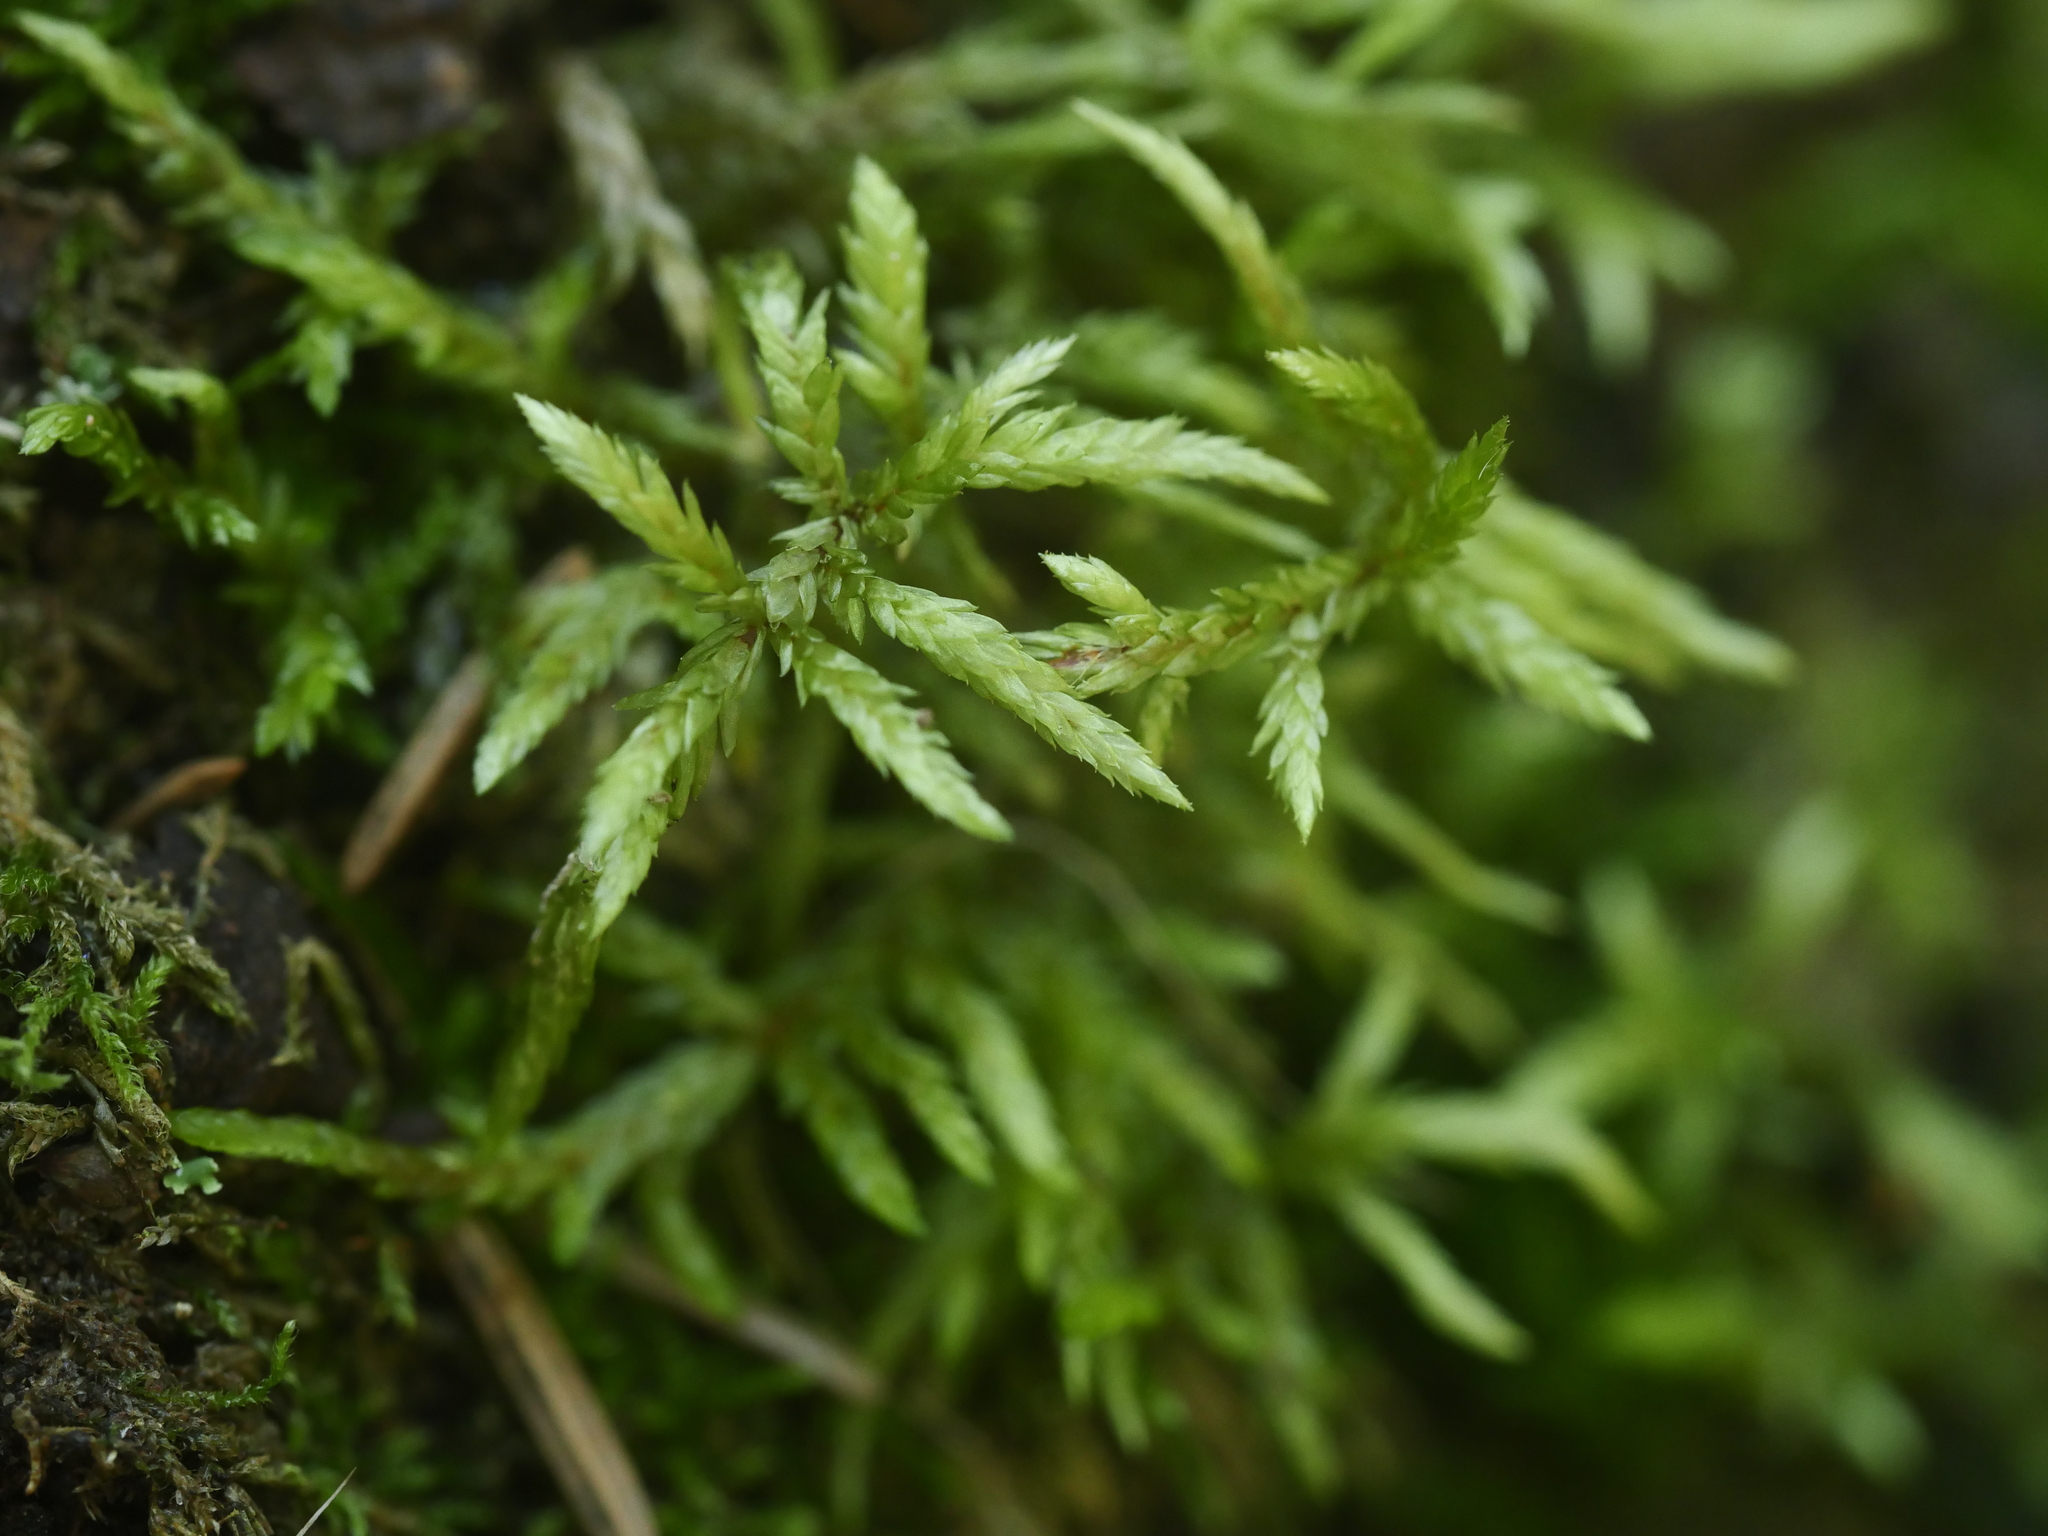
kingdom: Plantae
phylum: Bryophyta
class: Bryopsida
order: Hypnales
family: Hylocomiaceae
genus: Pleurozium
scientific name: Pleurozium schreberi
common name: Red-stemmed feather moss
